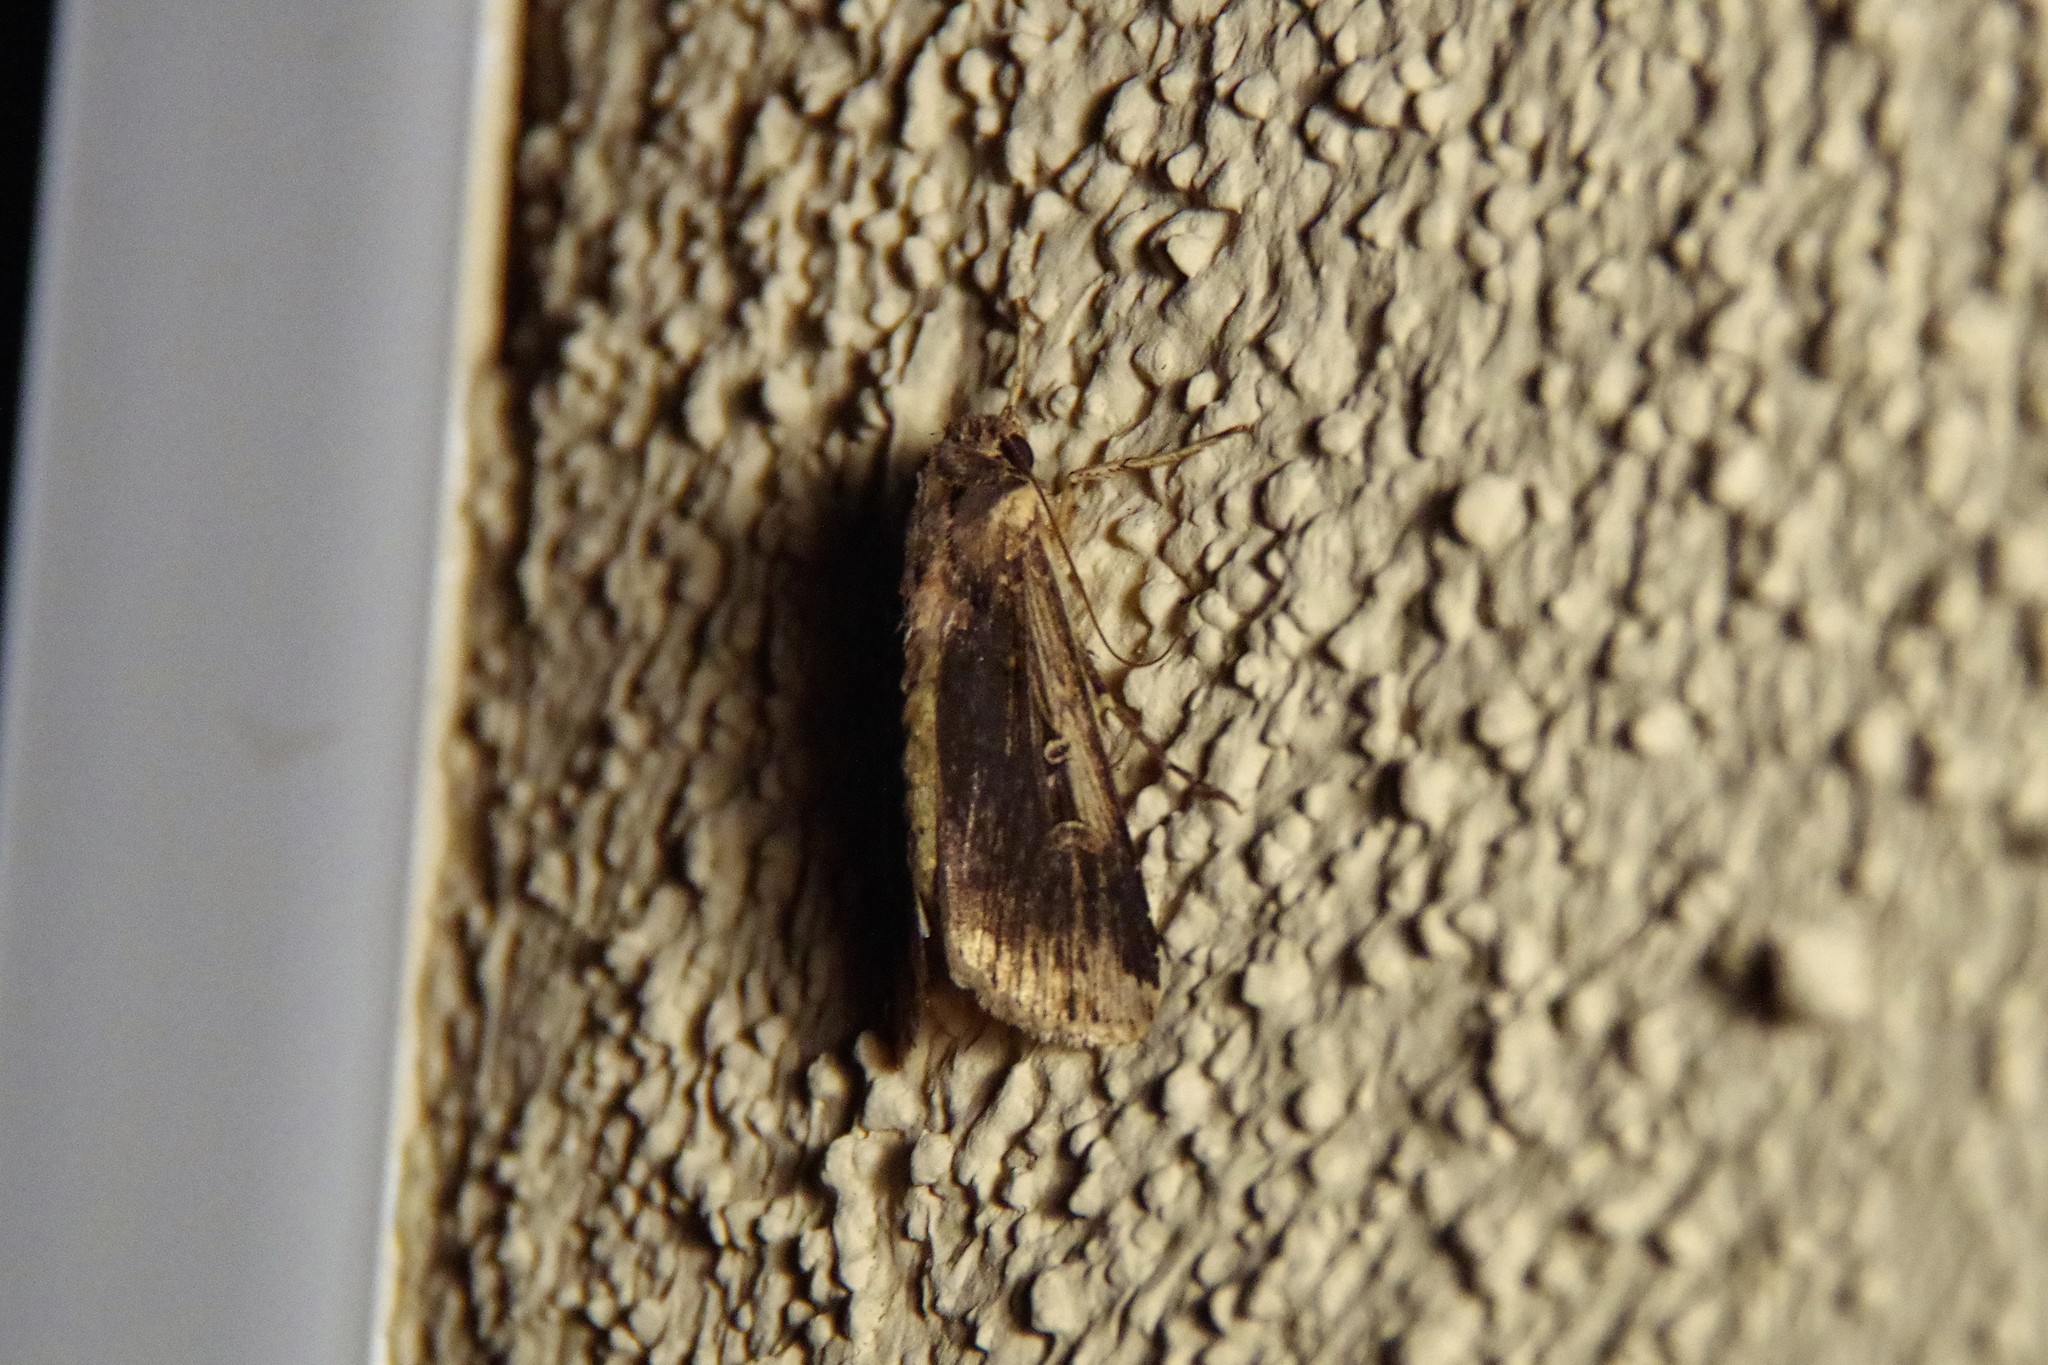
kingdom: Animalia
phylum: Arthropoda
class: Insecta
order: Lepidoptera
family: Noctuidae
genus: Feltia
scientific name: Feltia subterranea
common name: Granulate cutworm
